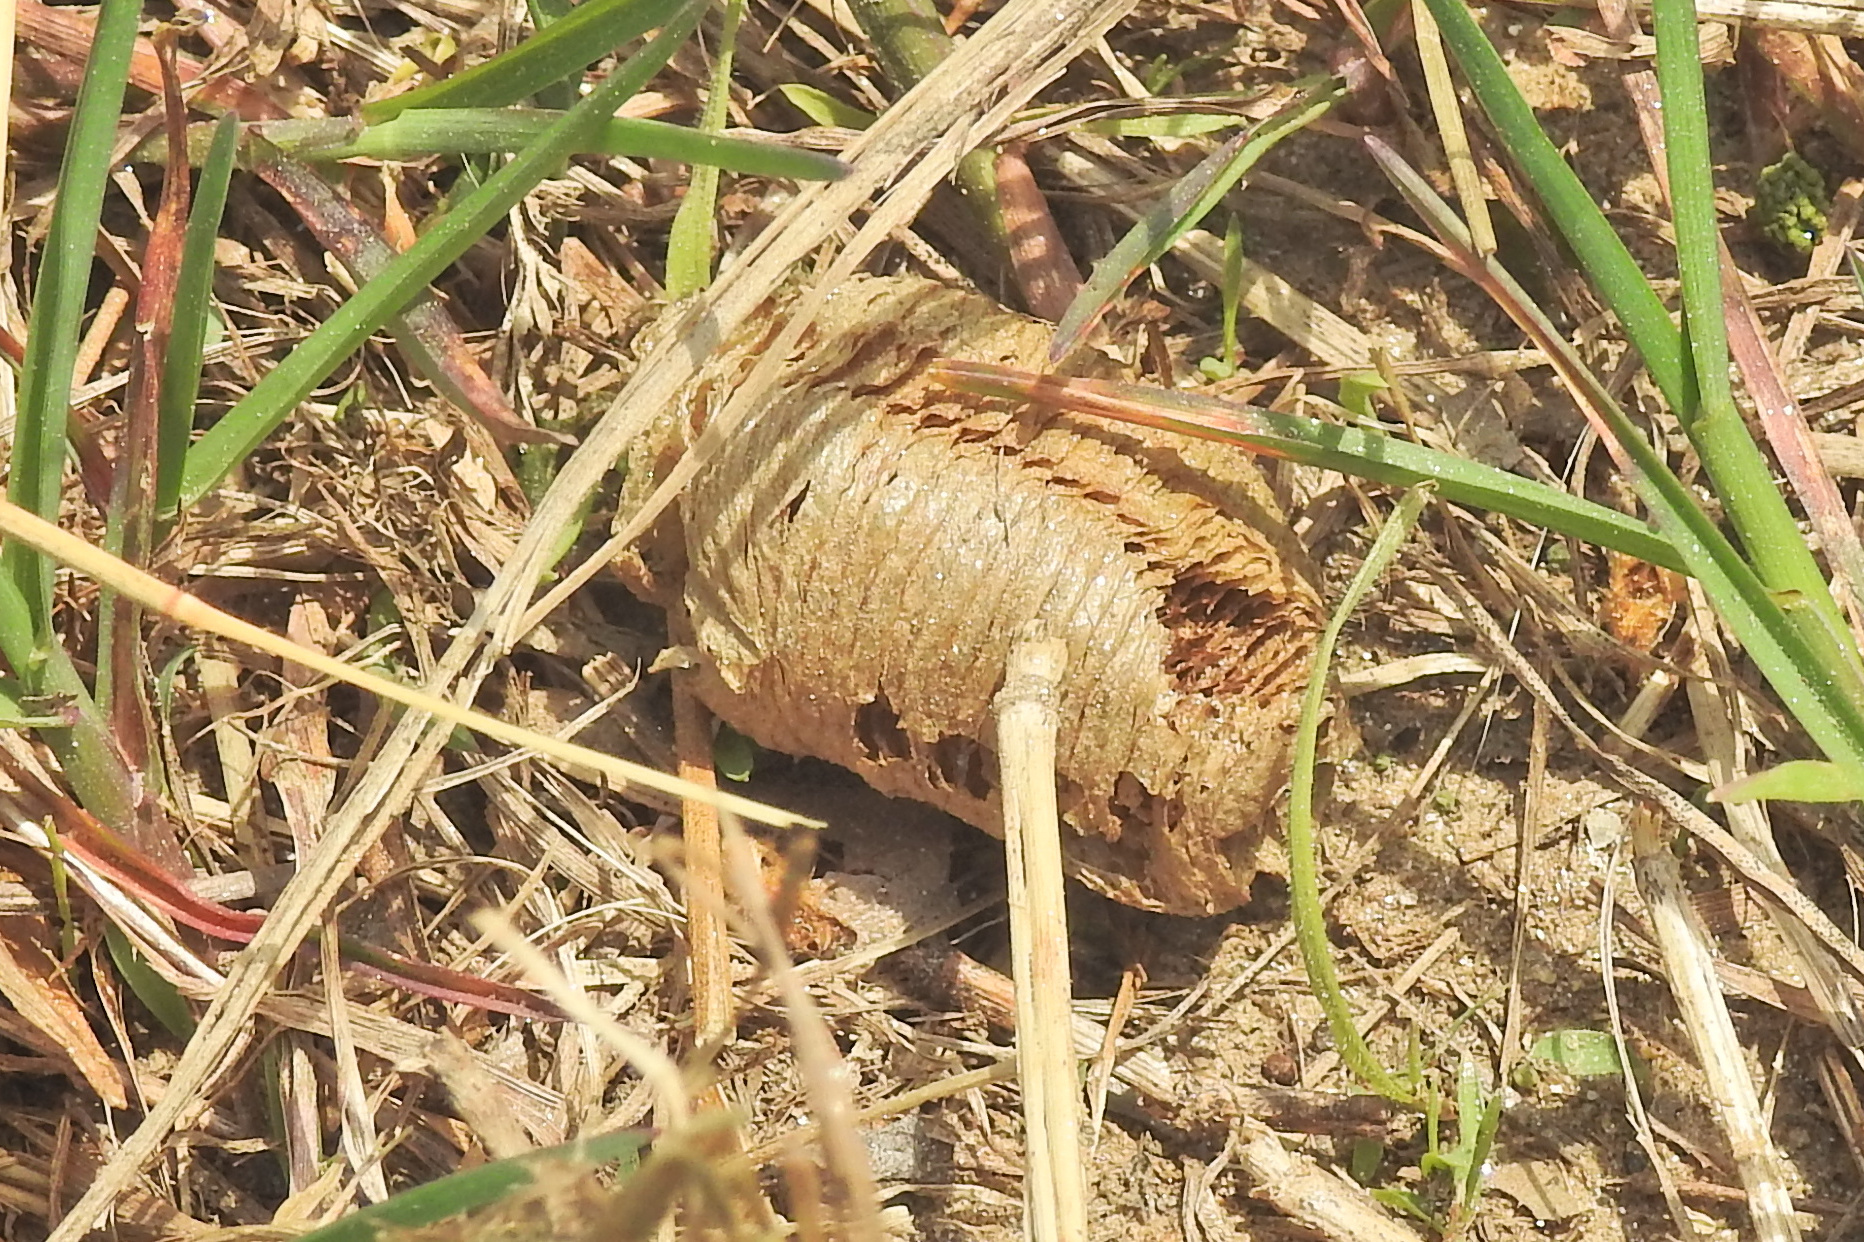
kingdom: Animalia
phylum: Arthropoda
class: Insecta
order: Mantodea
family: Mantidae
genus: Mantis
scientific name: Mantis religiosa
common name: Praying mantis
